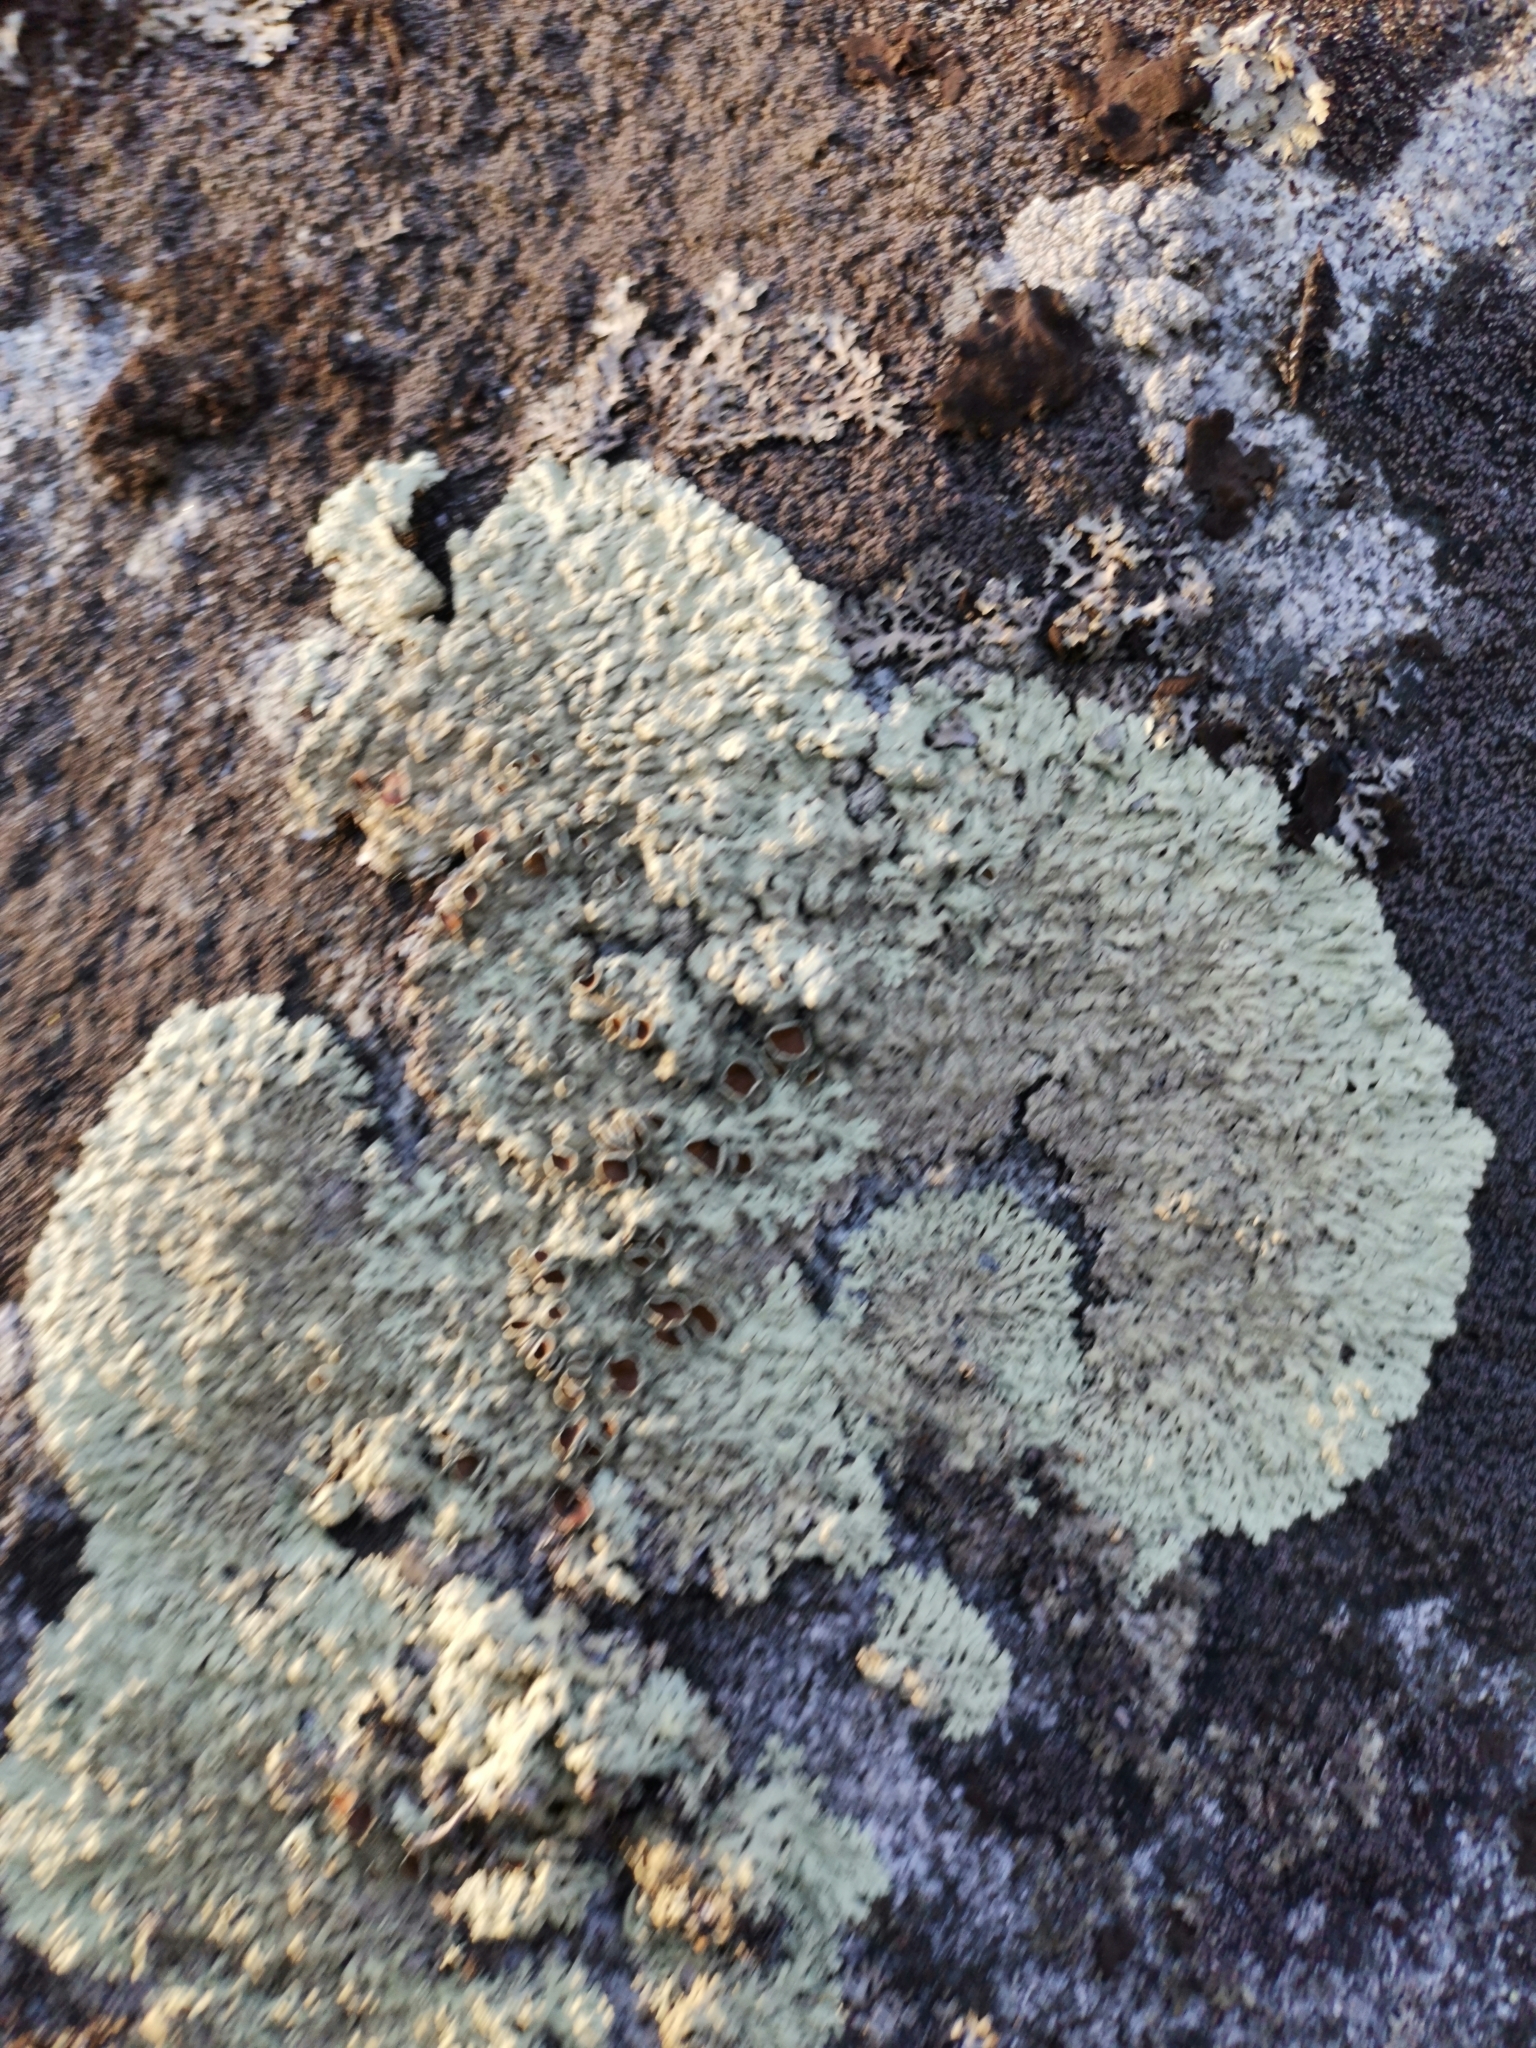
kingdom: Fungi
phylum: Ascomycota
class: Lecanoromycetes
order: Lecanorales
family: Parmeliaceae
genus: Arctoparmelia
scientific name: Arctoparmelia centrifuga
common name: Concentric ring lichen
